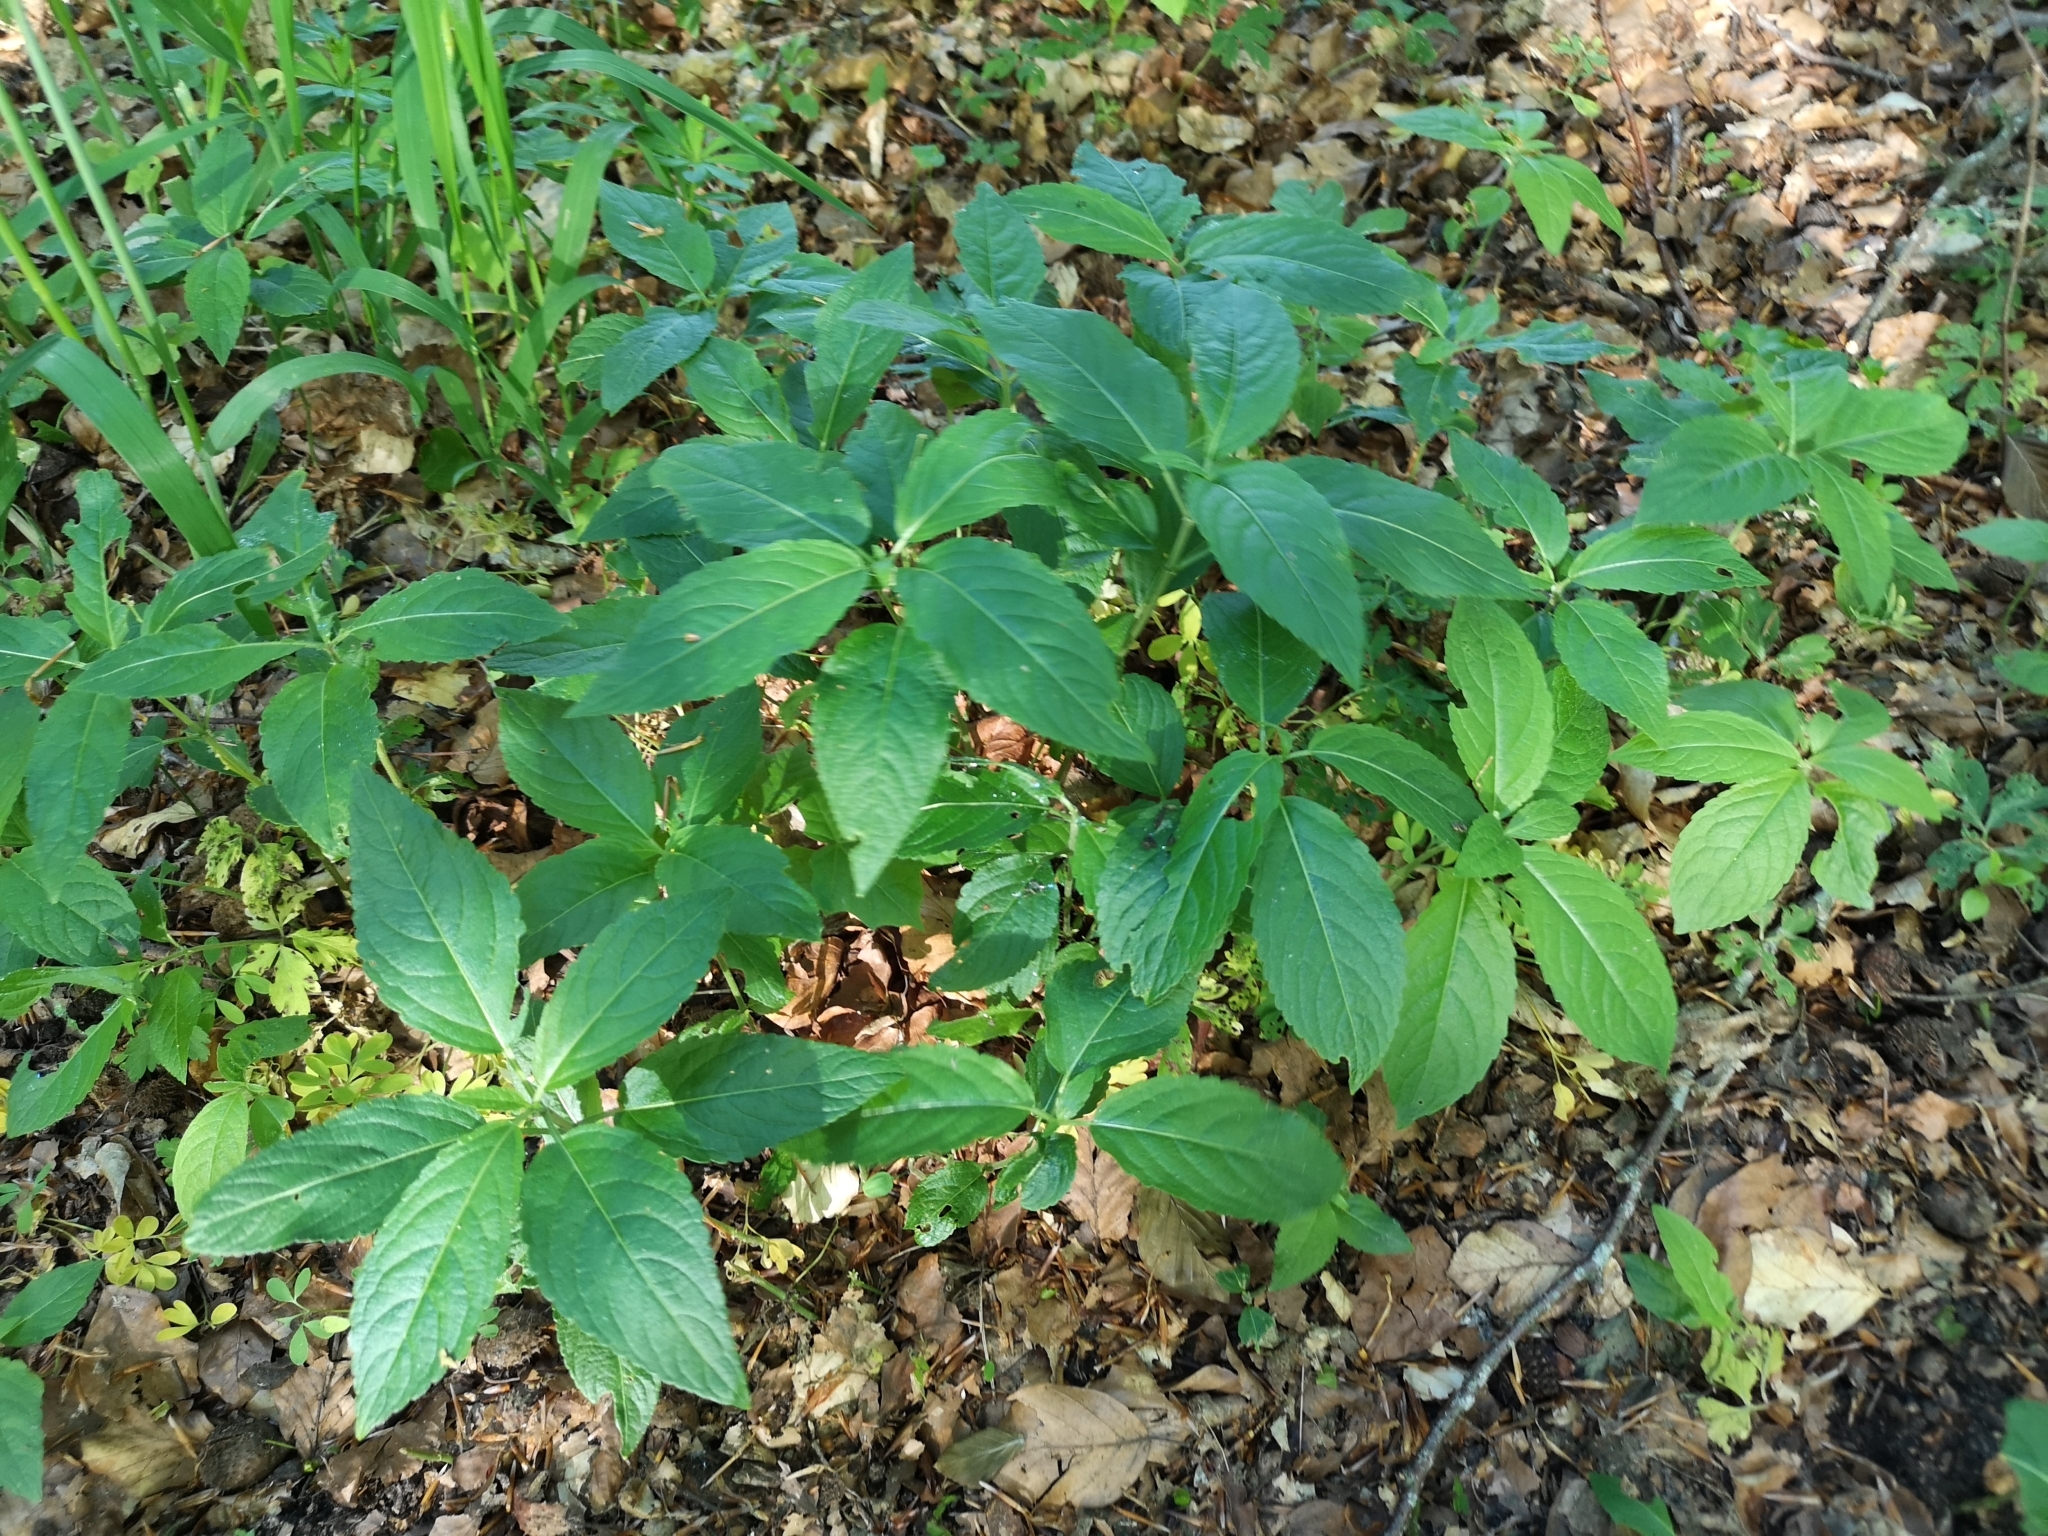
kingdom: Plantae
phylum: Tracheophyta
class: Magnoliopsida
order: Malpighiales
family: Euphorbiaceae
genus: Mercurialis
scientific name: Mercurialis perennis
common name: Dog mercury
